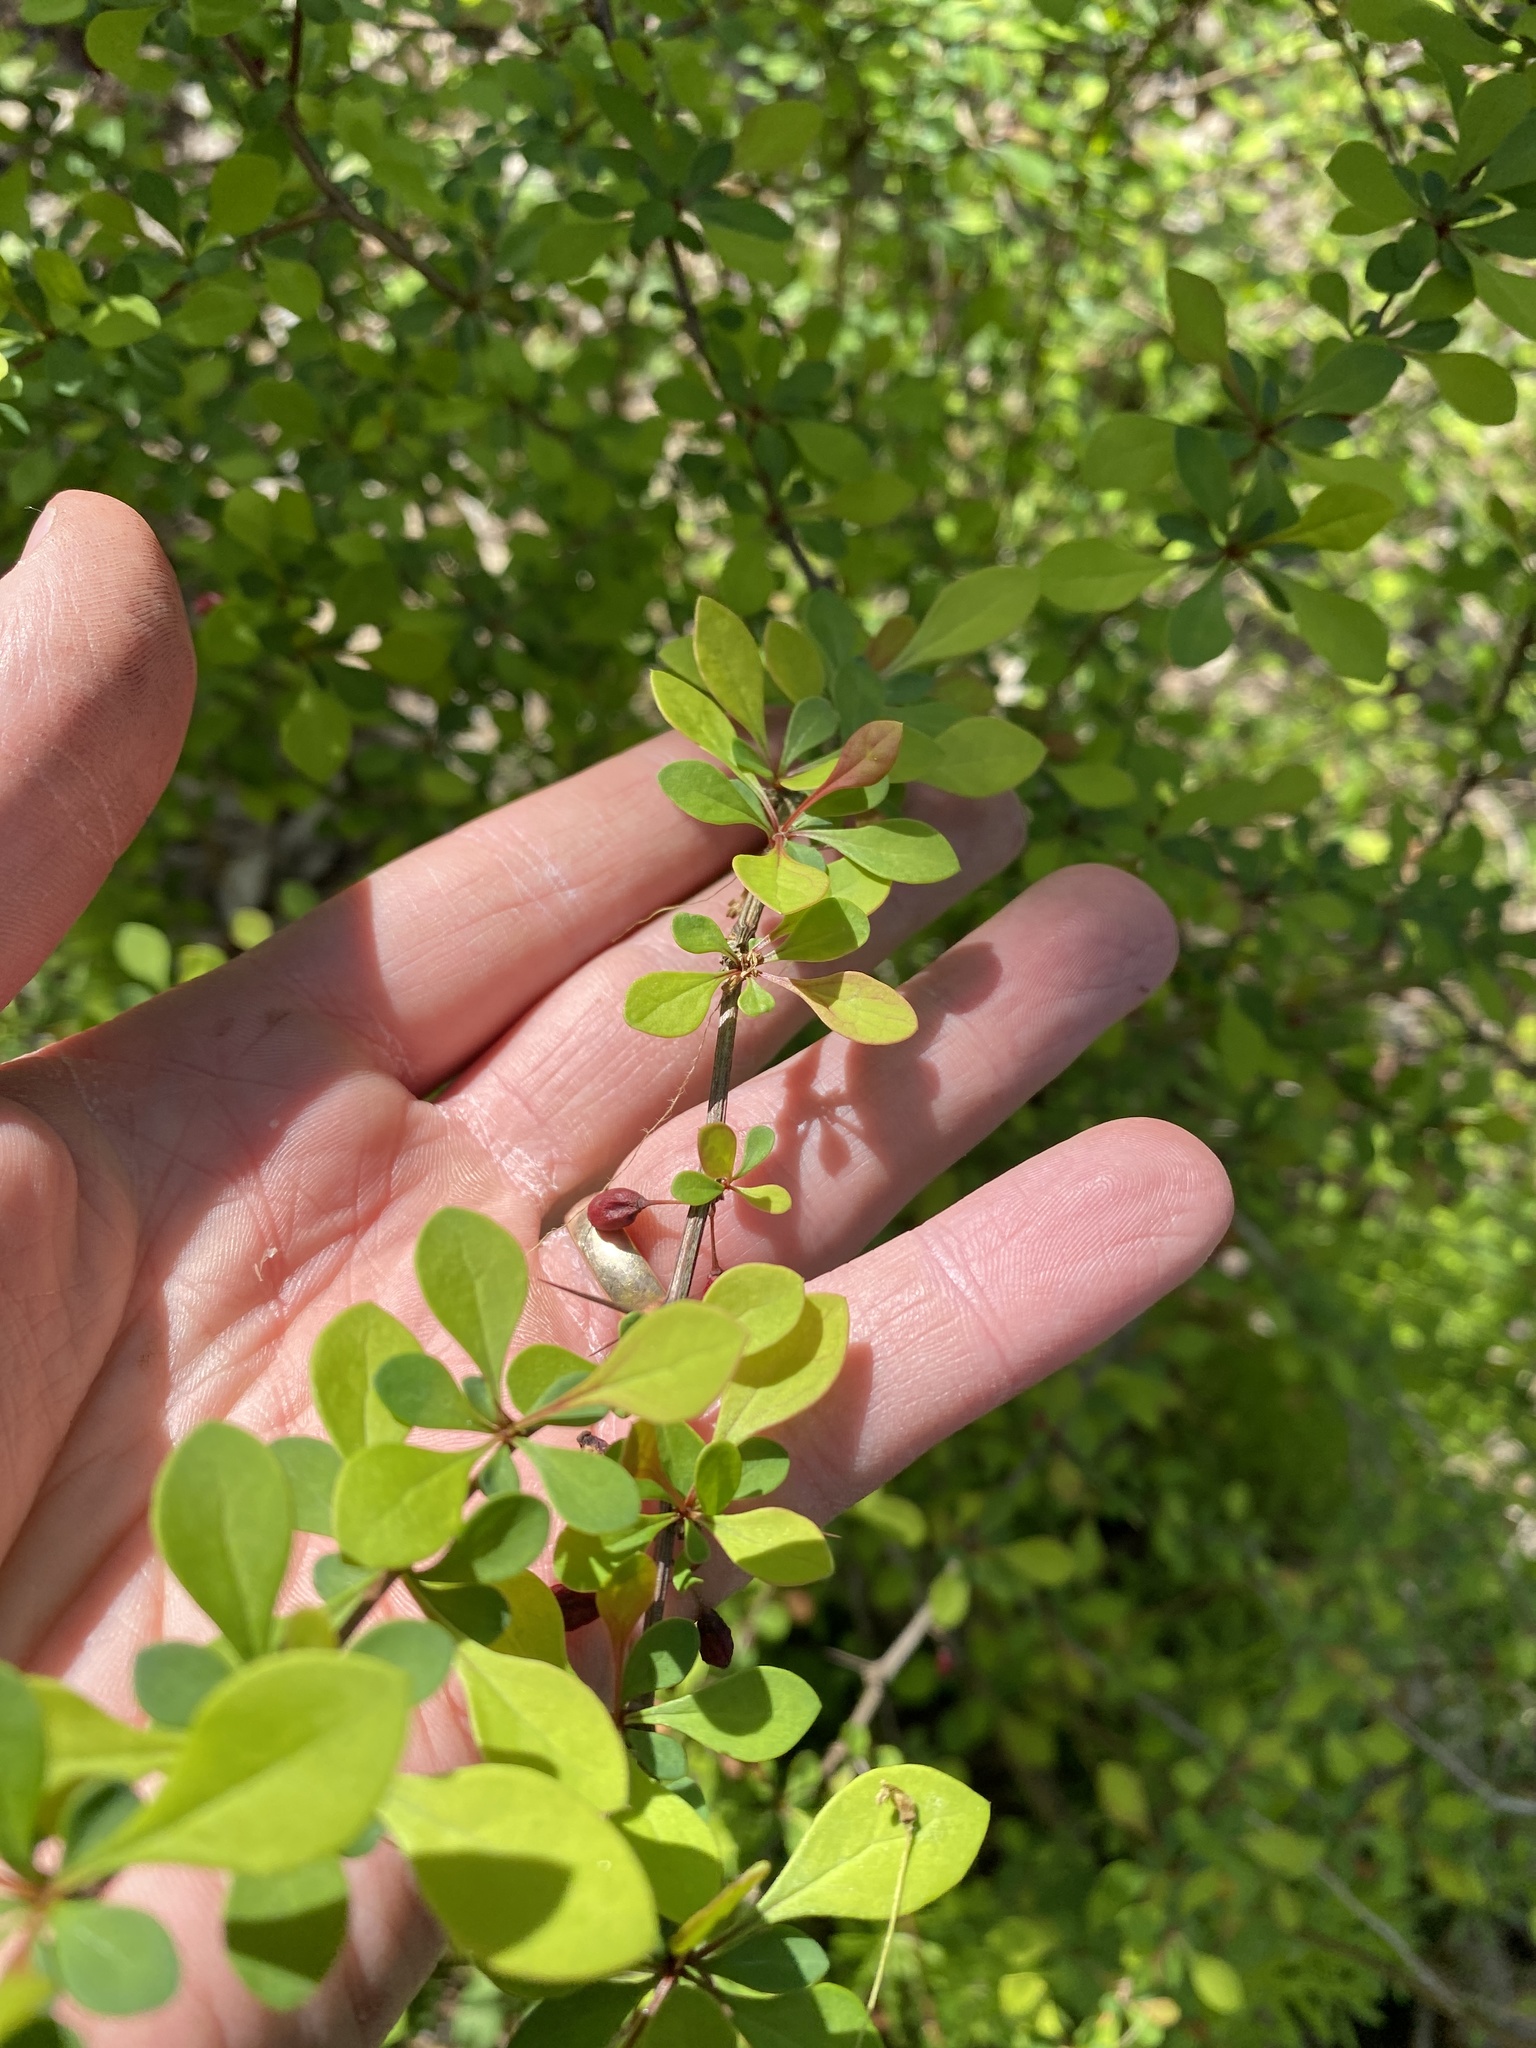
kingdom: Plantae
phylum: Tracheophyta
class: Magnoliopsida
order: Ranunculales
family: Berberidaceae
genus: Berberis
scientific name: Berberis thunbergii
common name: Japanese barberry
